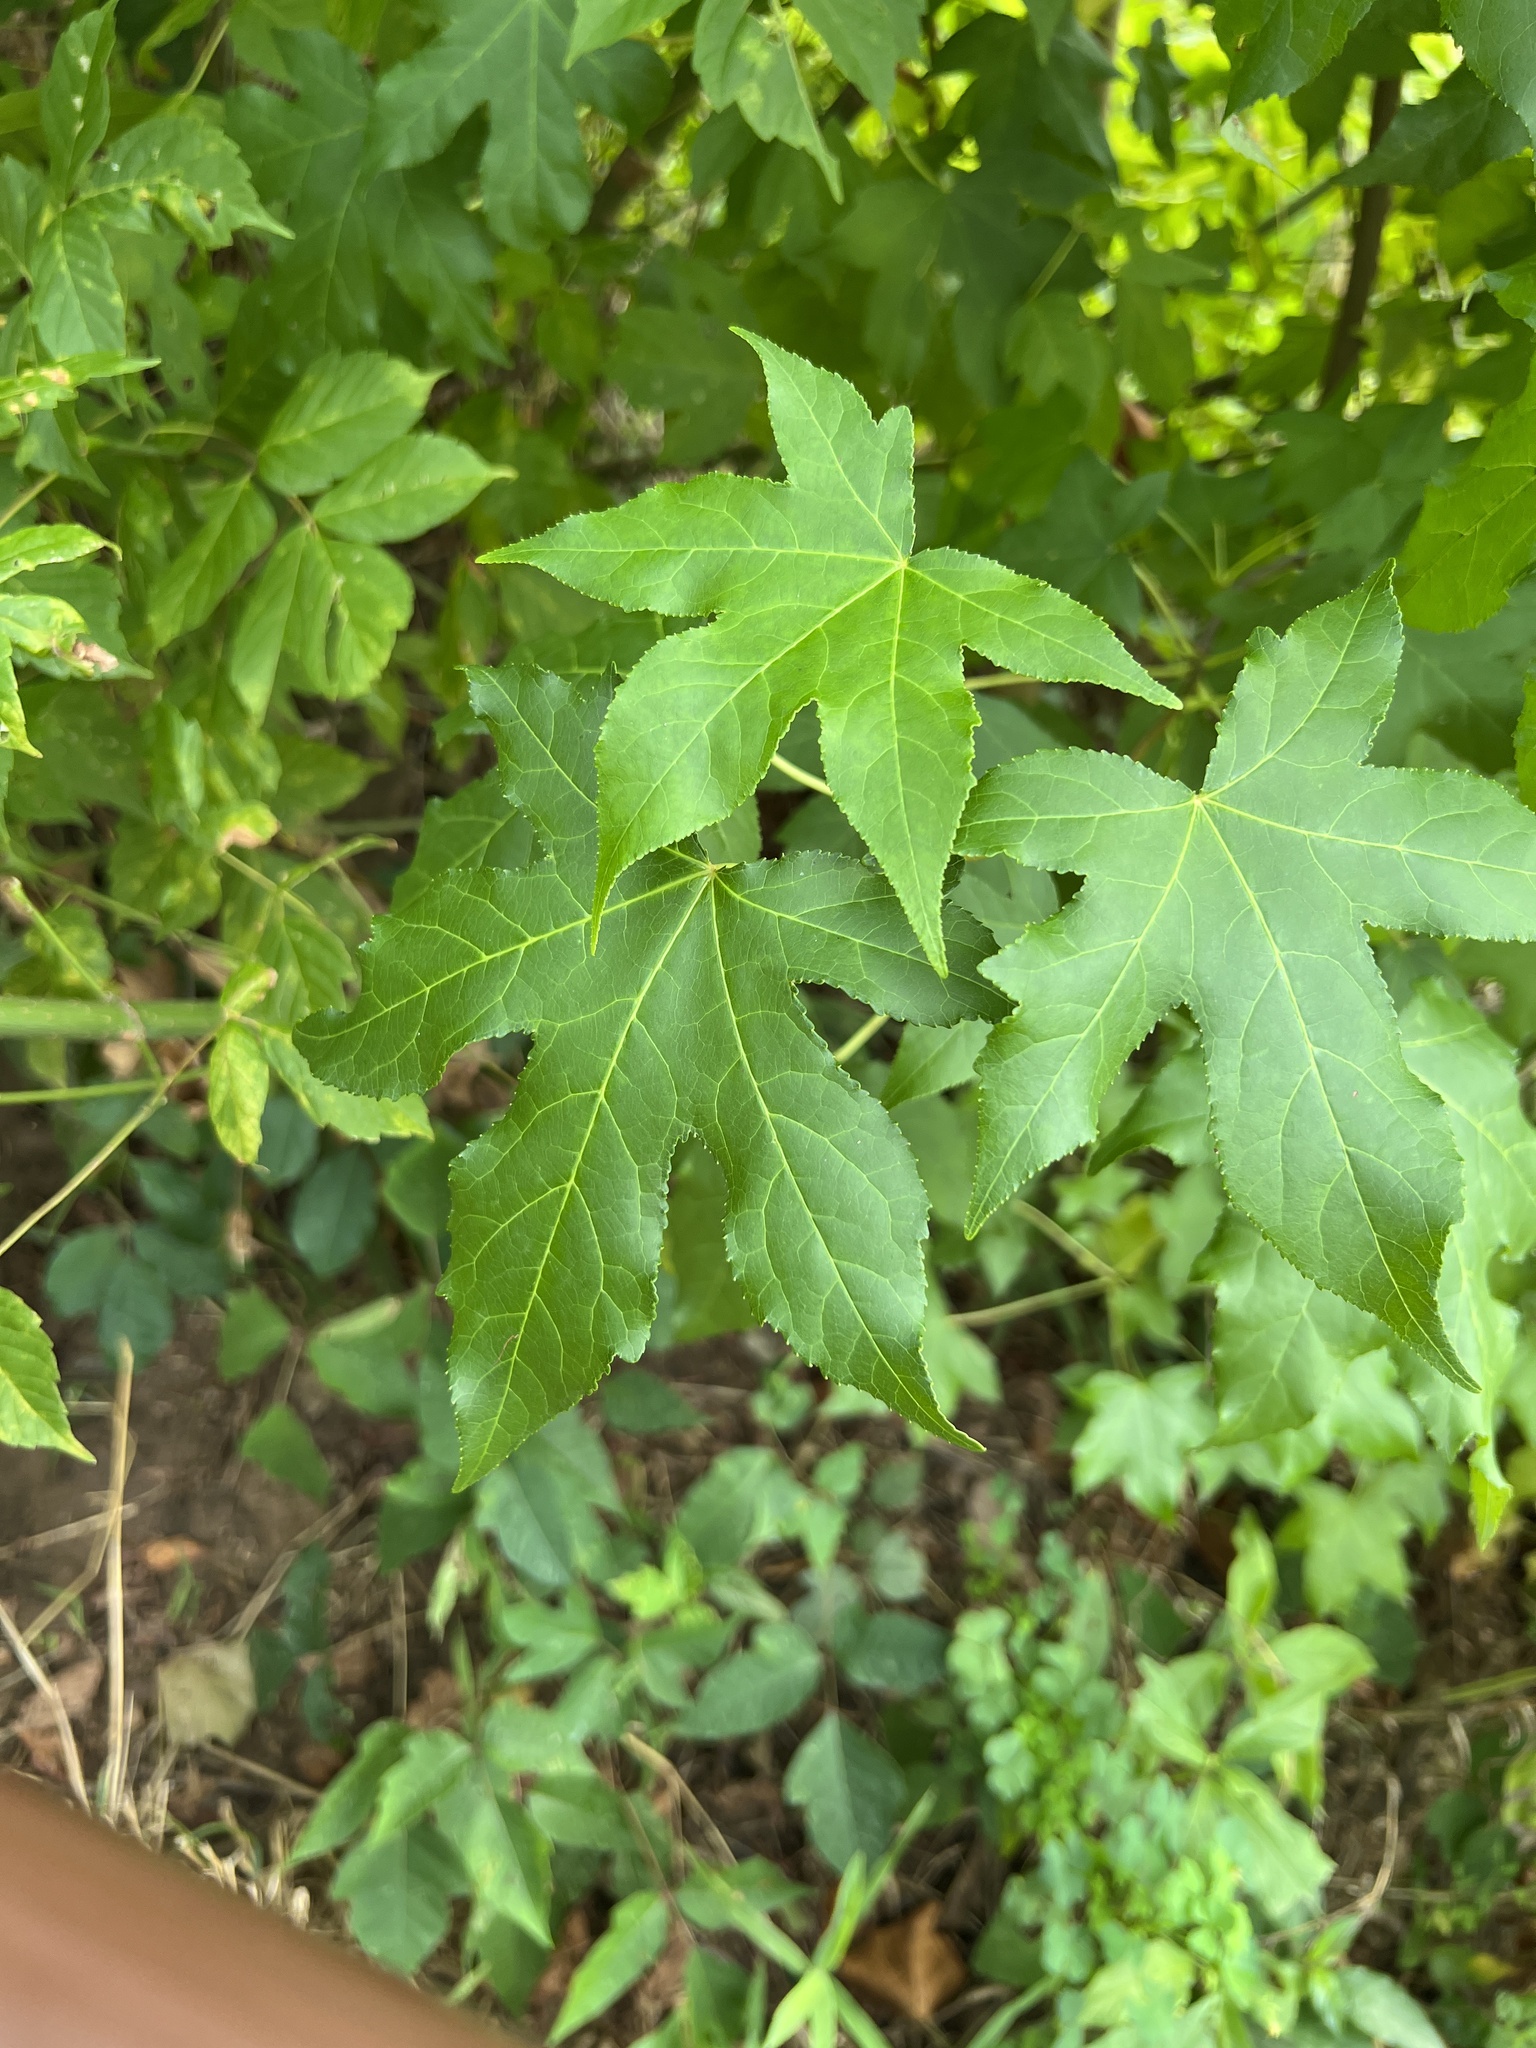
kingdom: Plantae
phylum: Tracheophyta
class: Magnoliopsida
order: Saxifragales
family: Altingiaceae
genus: Liquidambar
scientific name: Liquidambar styraciflua
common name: Sweet gum
